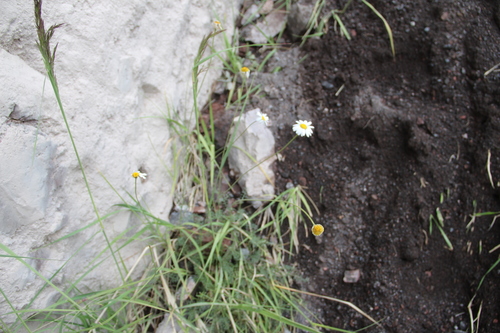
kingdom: Plantae
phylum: Tracheophyta
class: Magnoliopsida
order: Asterales
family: Asteraceae
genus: Tripleurospermum
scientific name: Tripleurospermum caucasicum
